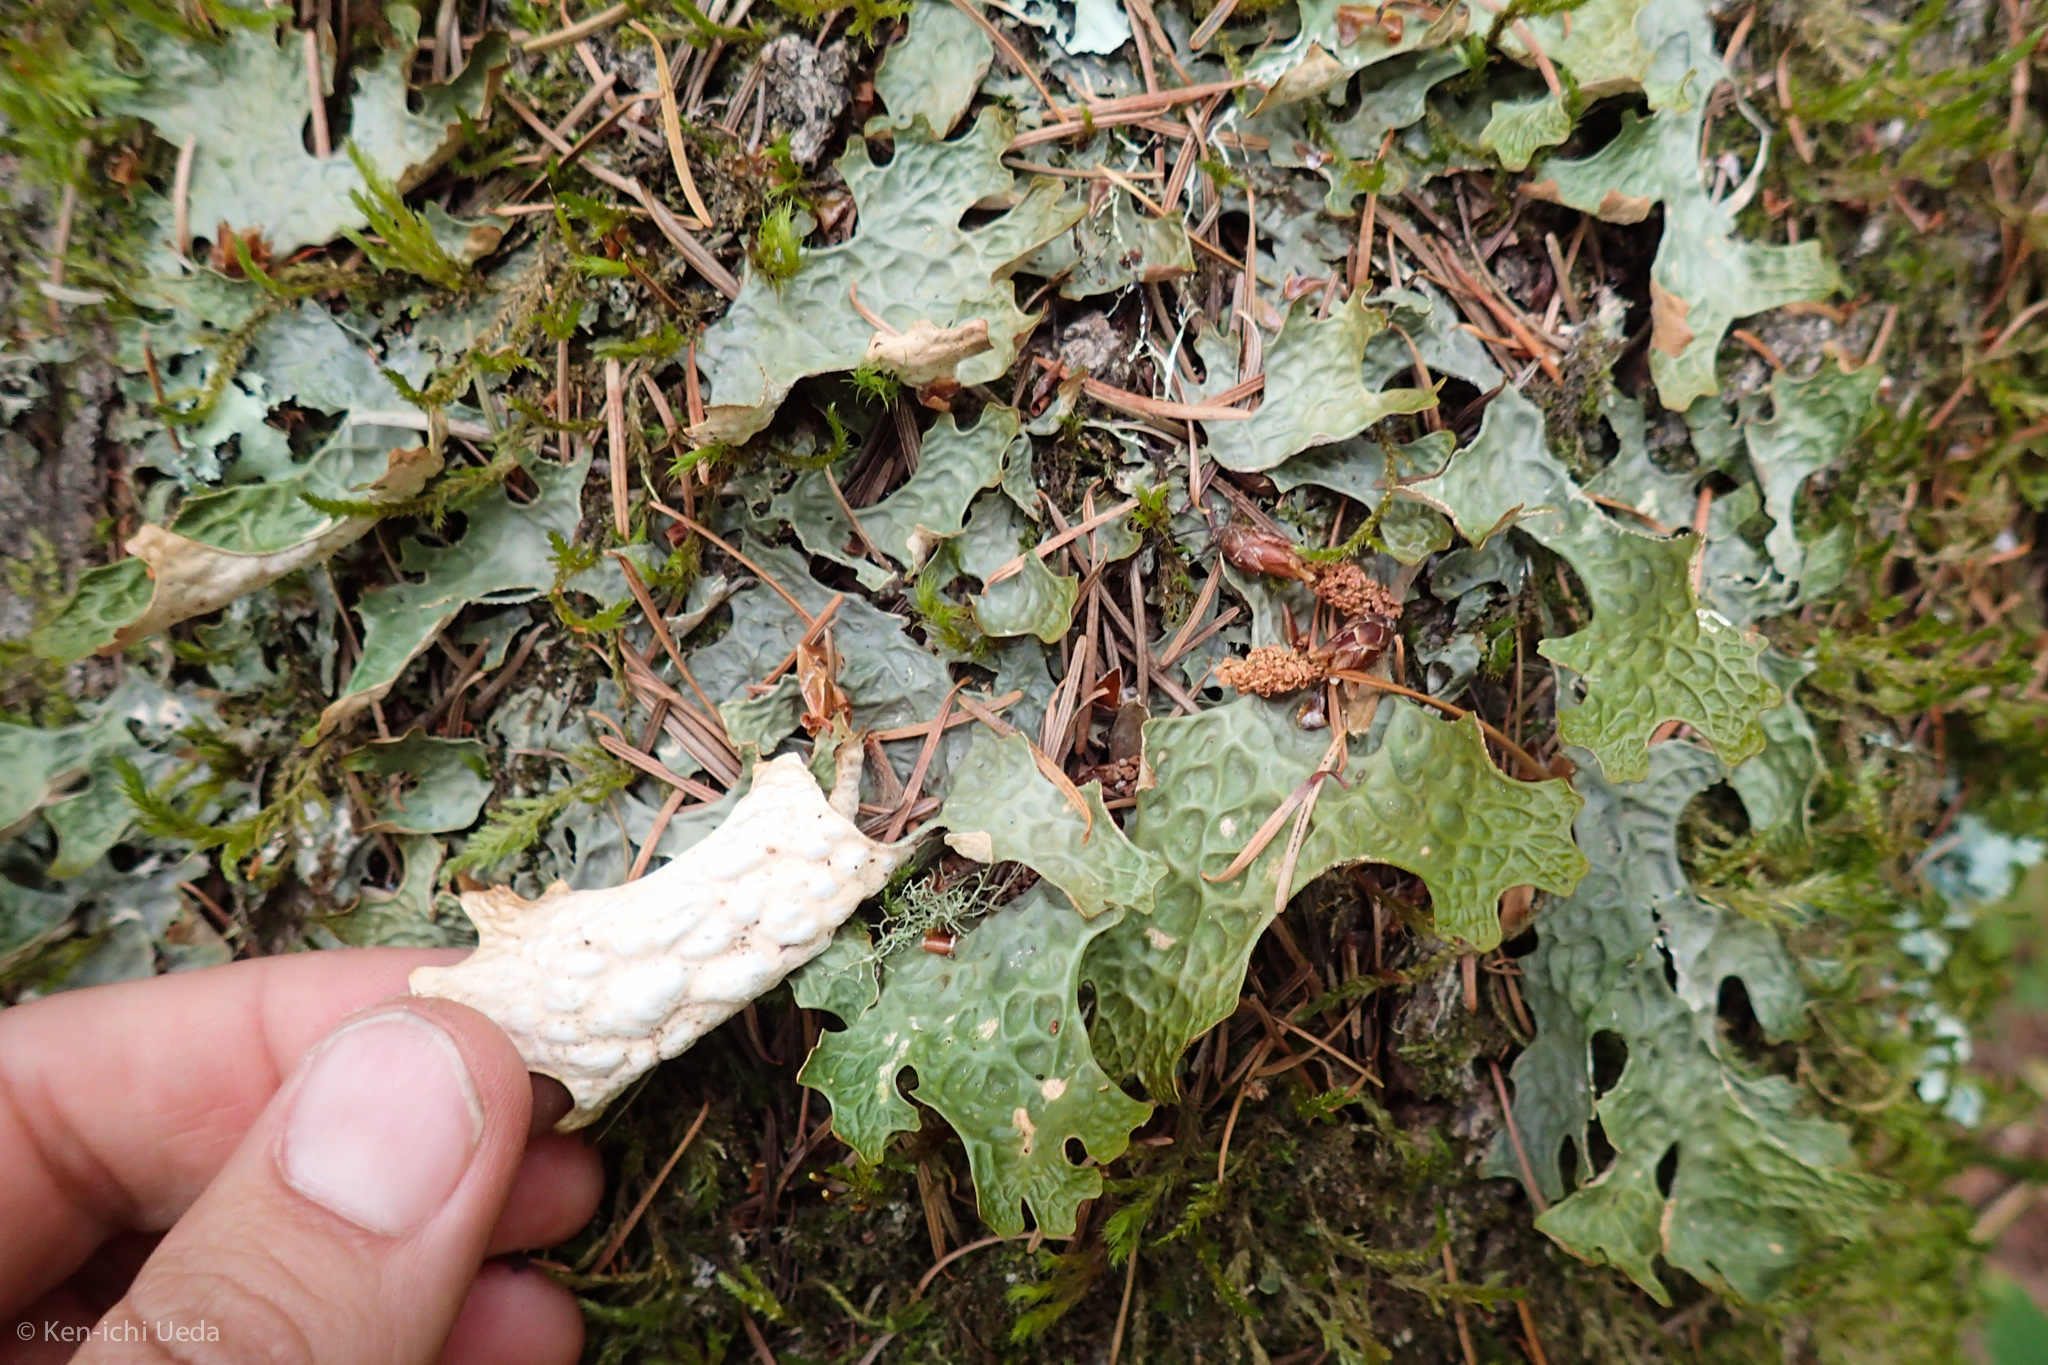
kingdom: Fungi
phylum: Ascomycota
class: Lecanoromycetes
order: Peltigerales
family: Lobariaceae
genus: Lobaria
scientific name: Lobaria pulmonaria
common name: Lungwort
